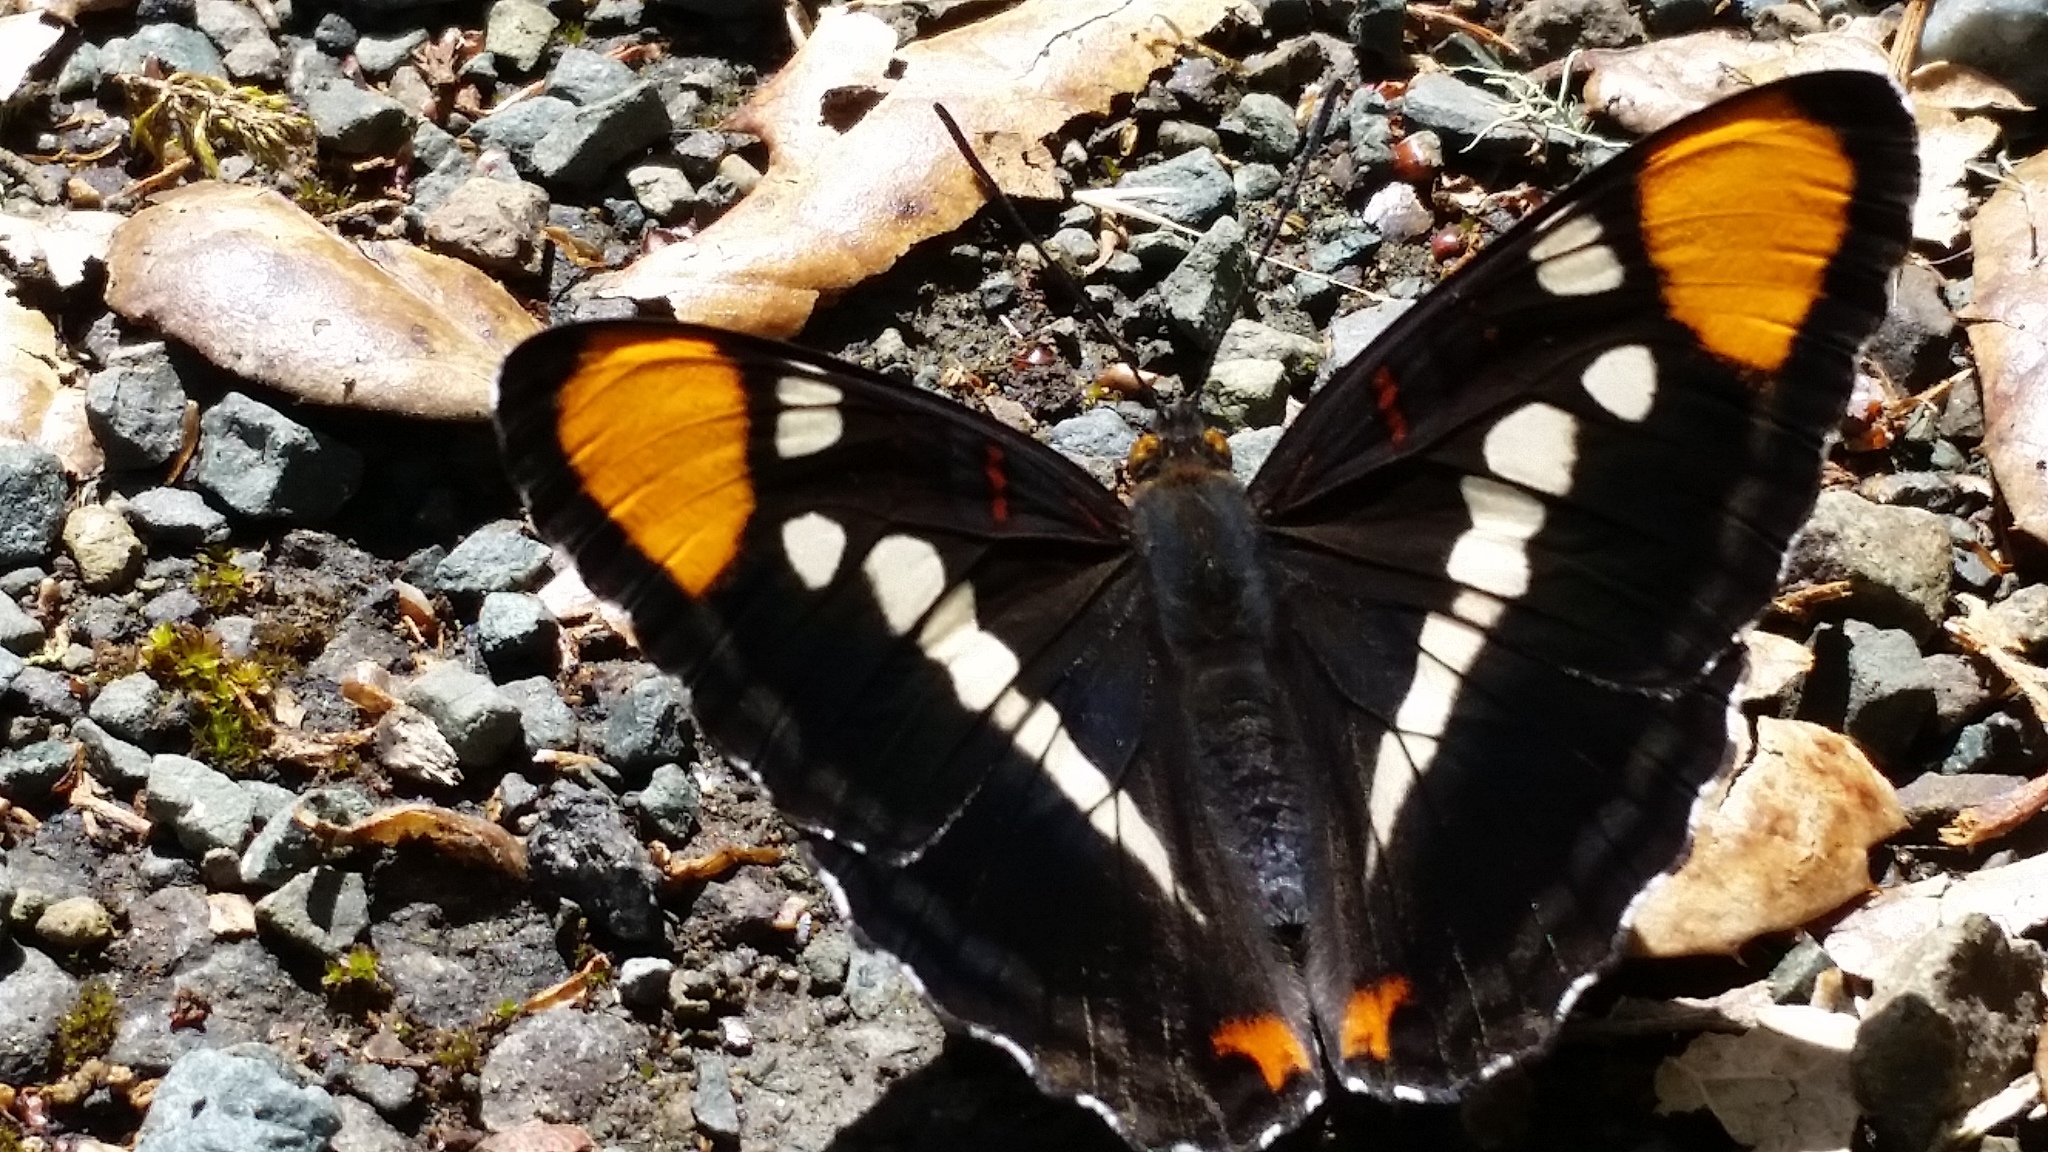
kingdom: Animalia
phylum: Arthropoda
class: Insecta
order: Lepidoptera
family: Nymphalidae
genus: Limenitis
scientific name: Limenitis bredowii
